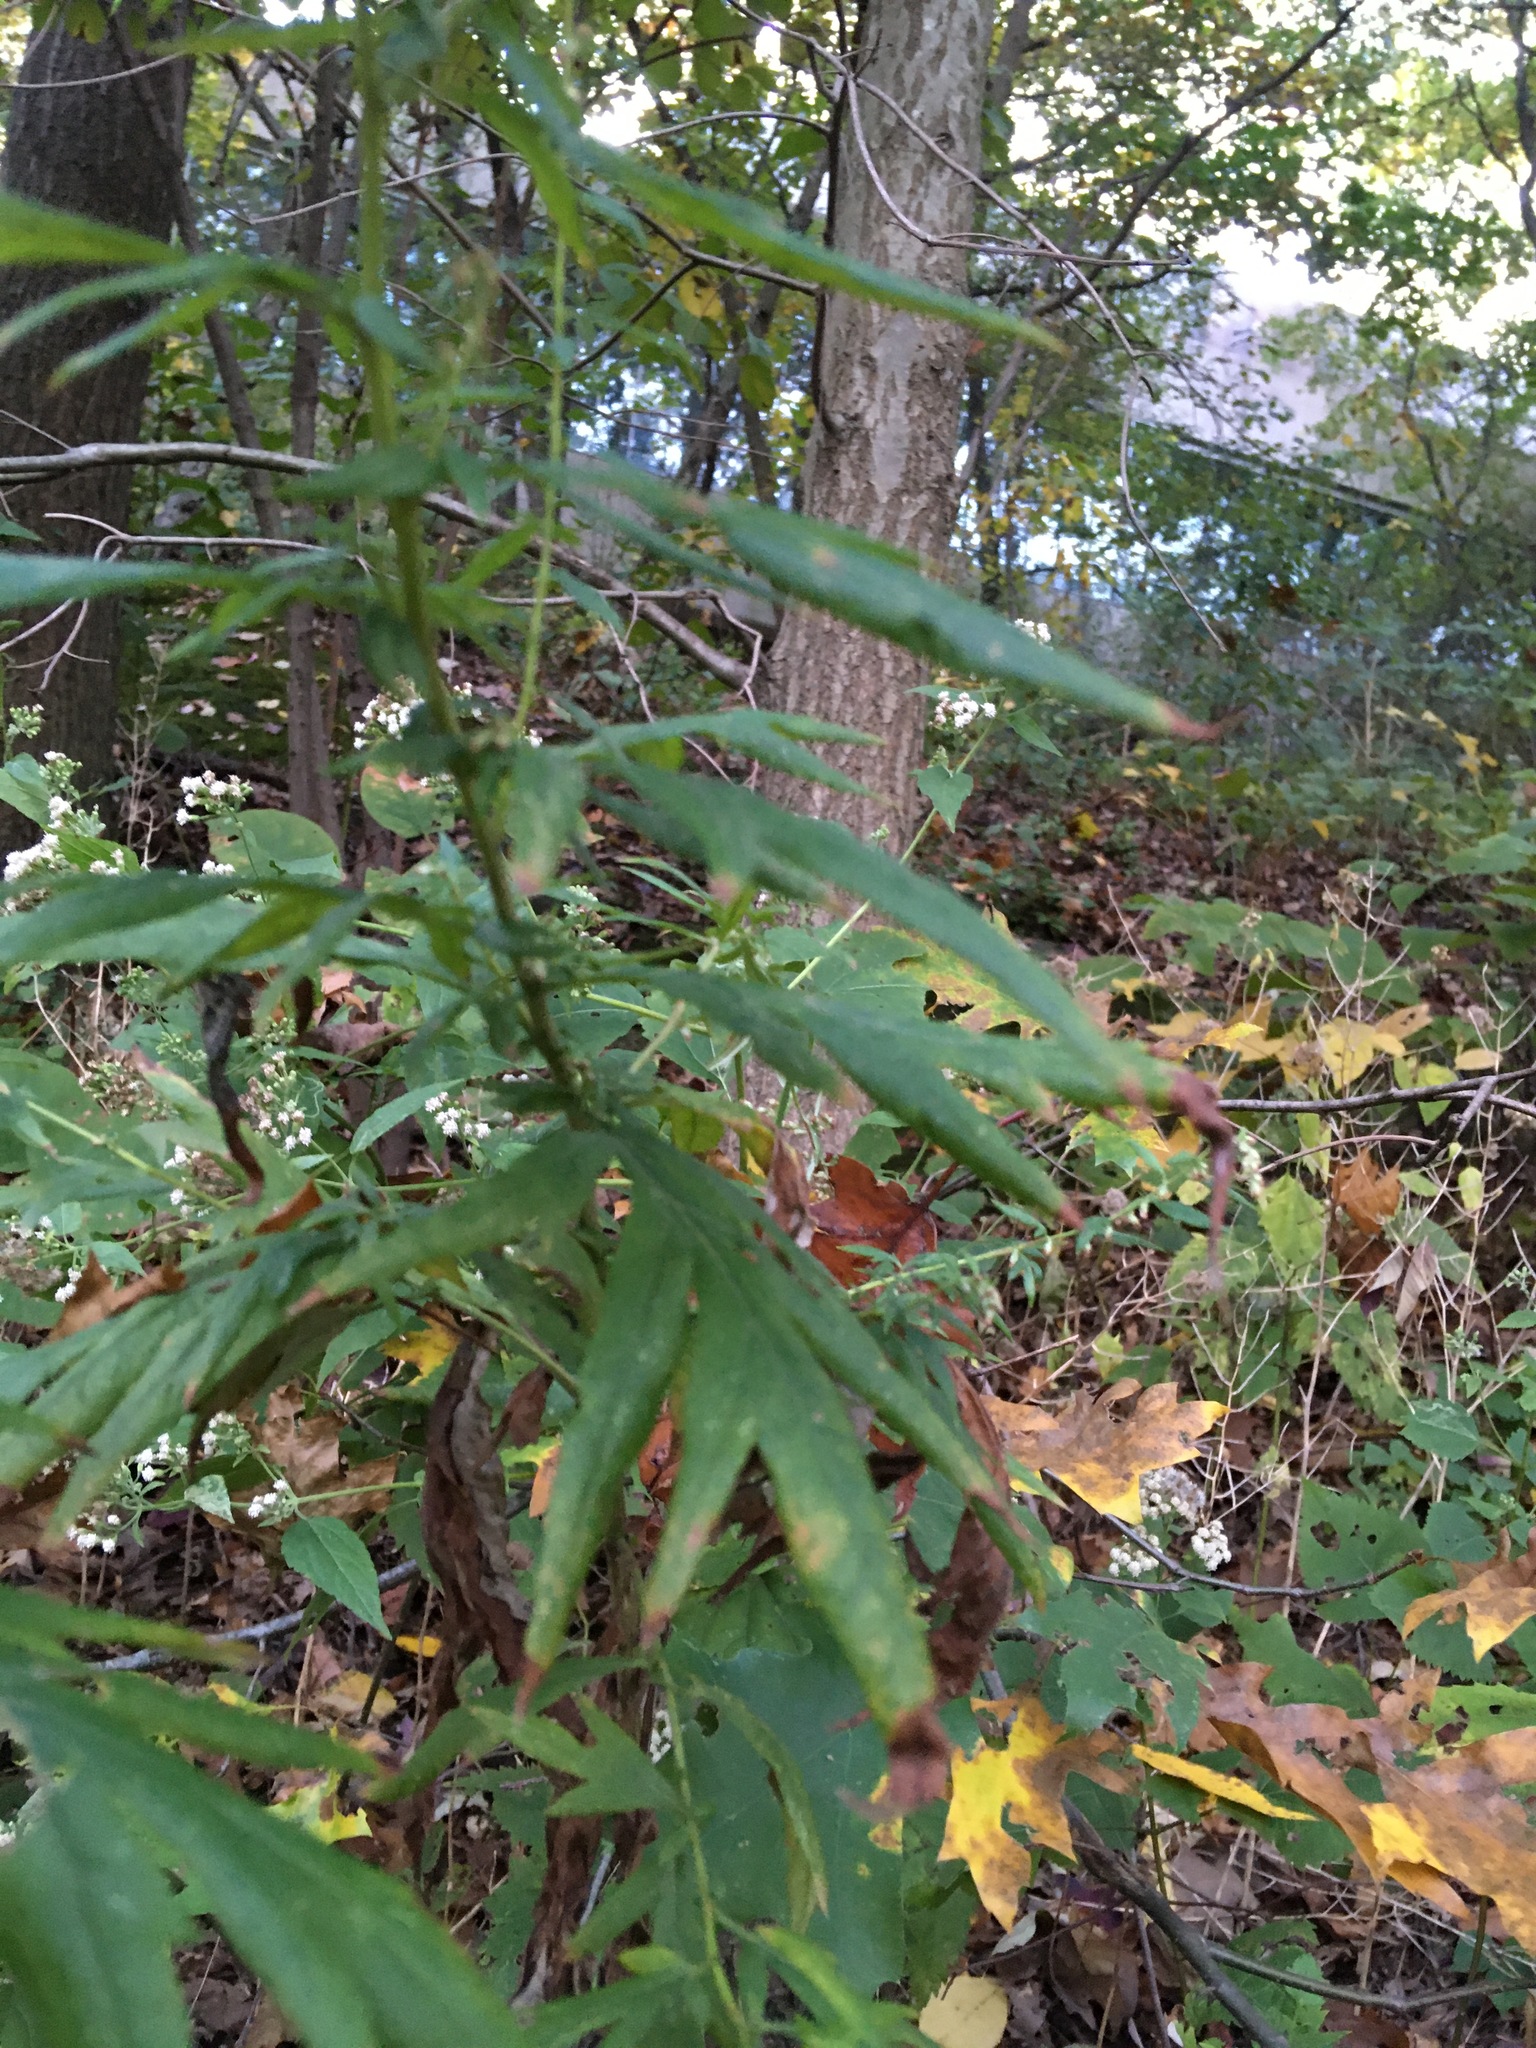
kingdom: Plantae
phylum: Tracheophyta
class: Magnoliopsida
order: Asterales
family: Asteraceae
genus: Artemisia
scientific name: Artemisia vulgaris
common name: Mugwort
